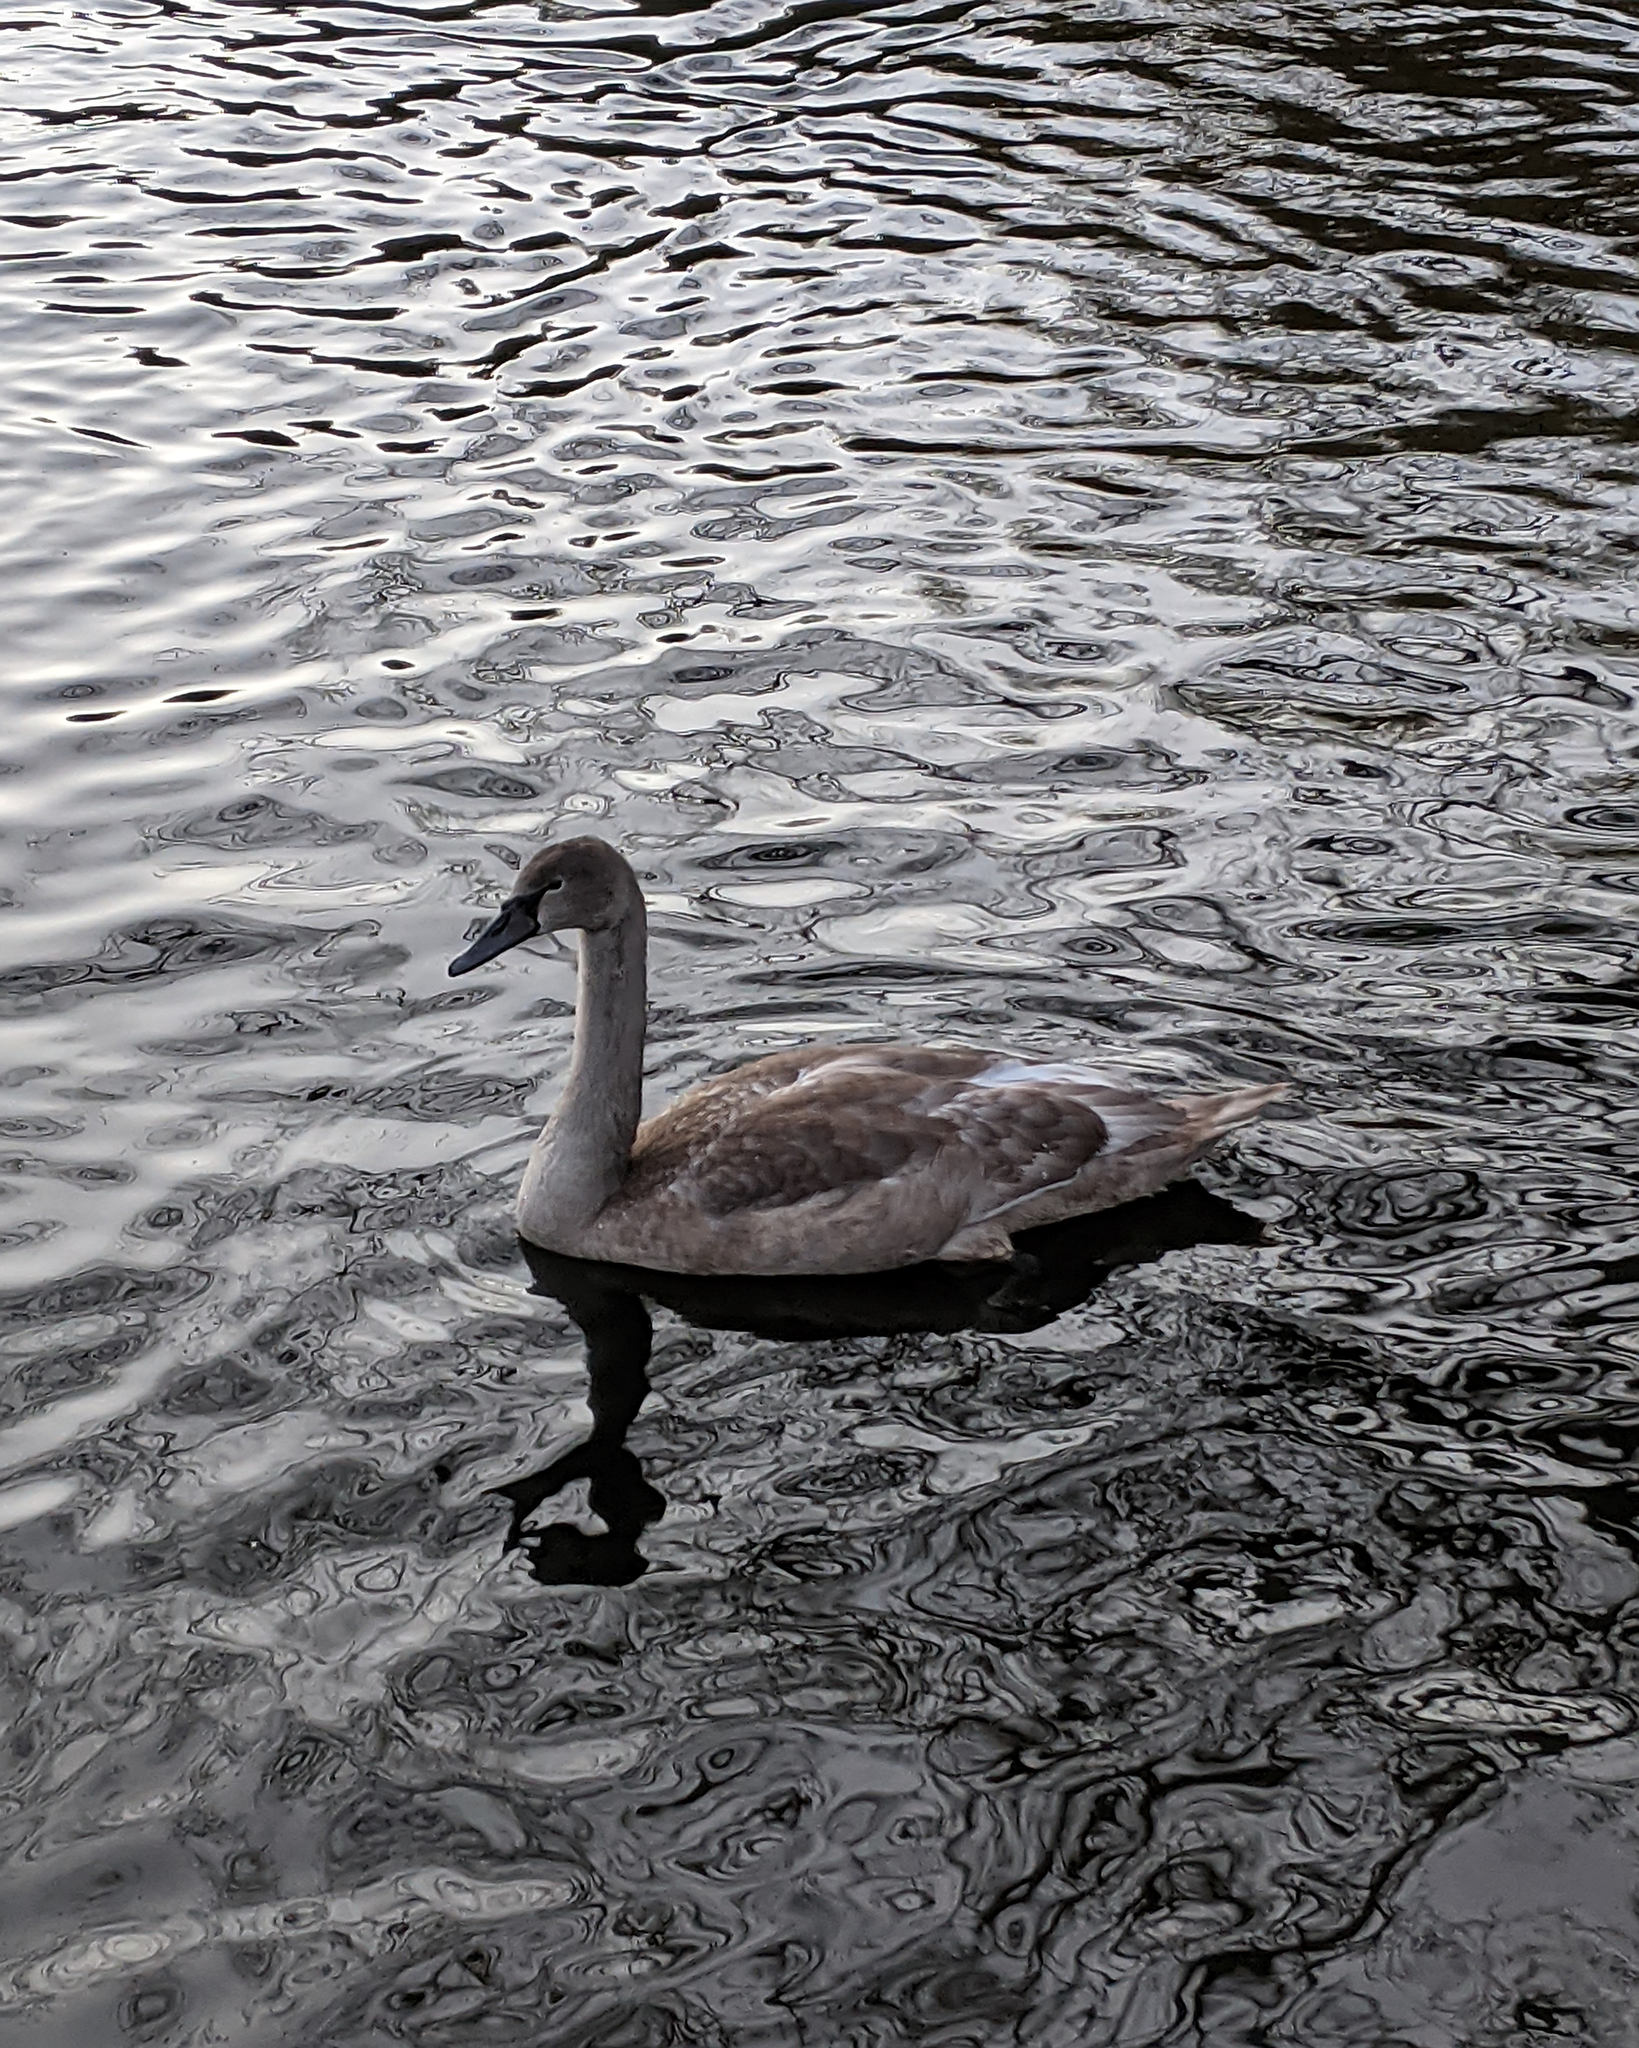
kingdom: Animalia
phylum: Chordata
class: Aves
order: Anseriformes
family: Anatidae
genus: Cygnus
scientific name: Cygnus olor
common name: Mute swan
